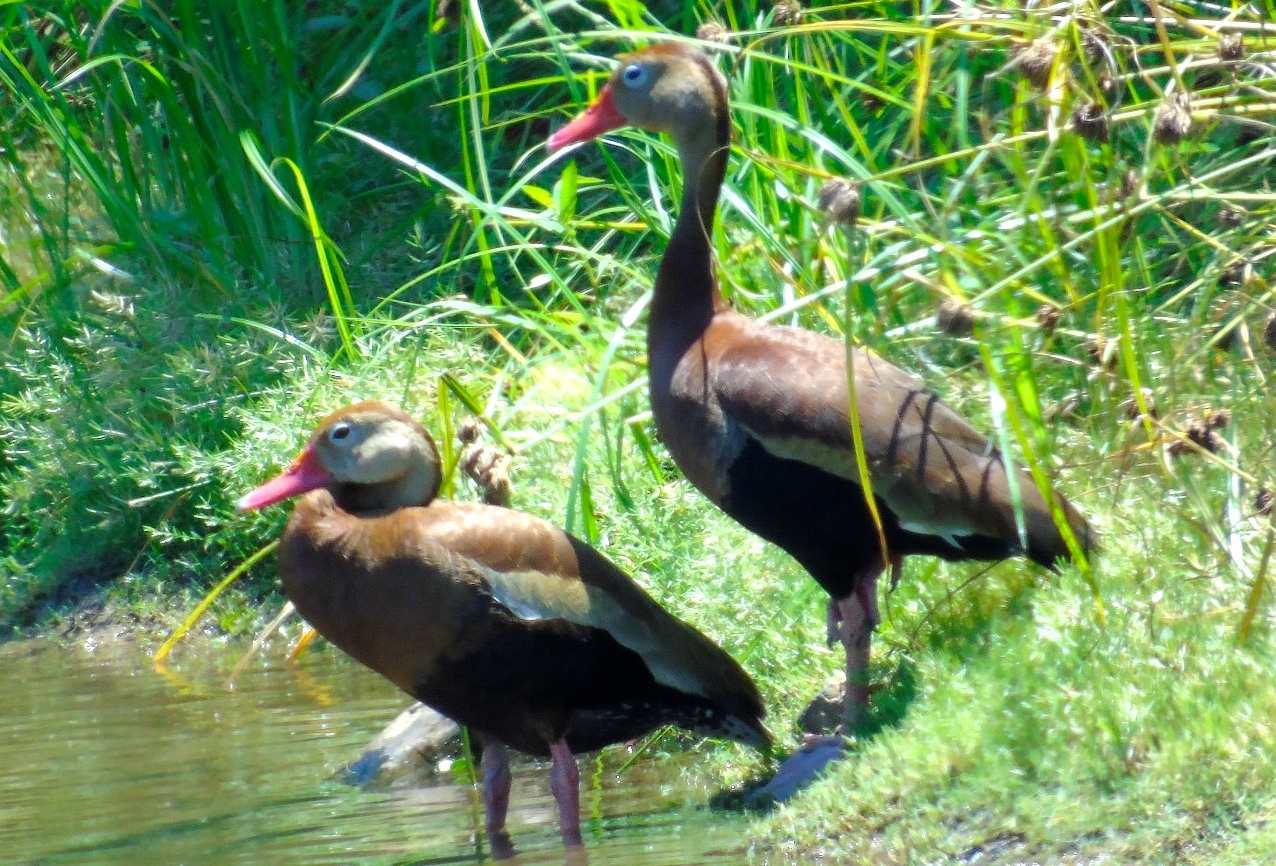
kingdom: Animalia
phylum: Chordata
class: Aves
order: Anseriformes
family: Anatidae
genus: Dendrocygna
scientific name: Dendrocygna autumnalis
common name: Black-bellied whistling duck
